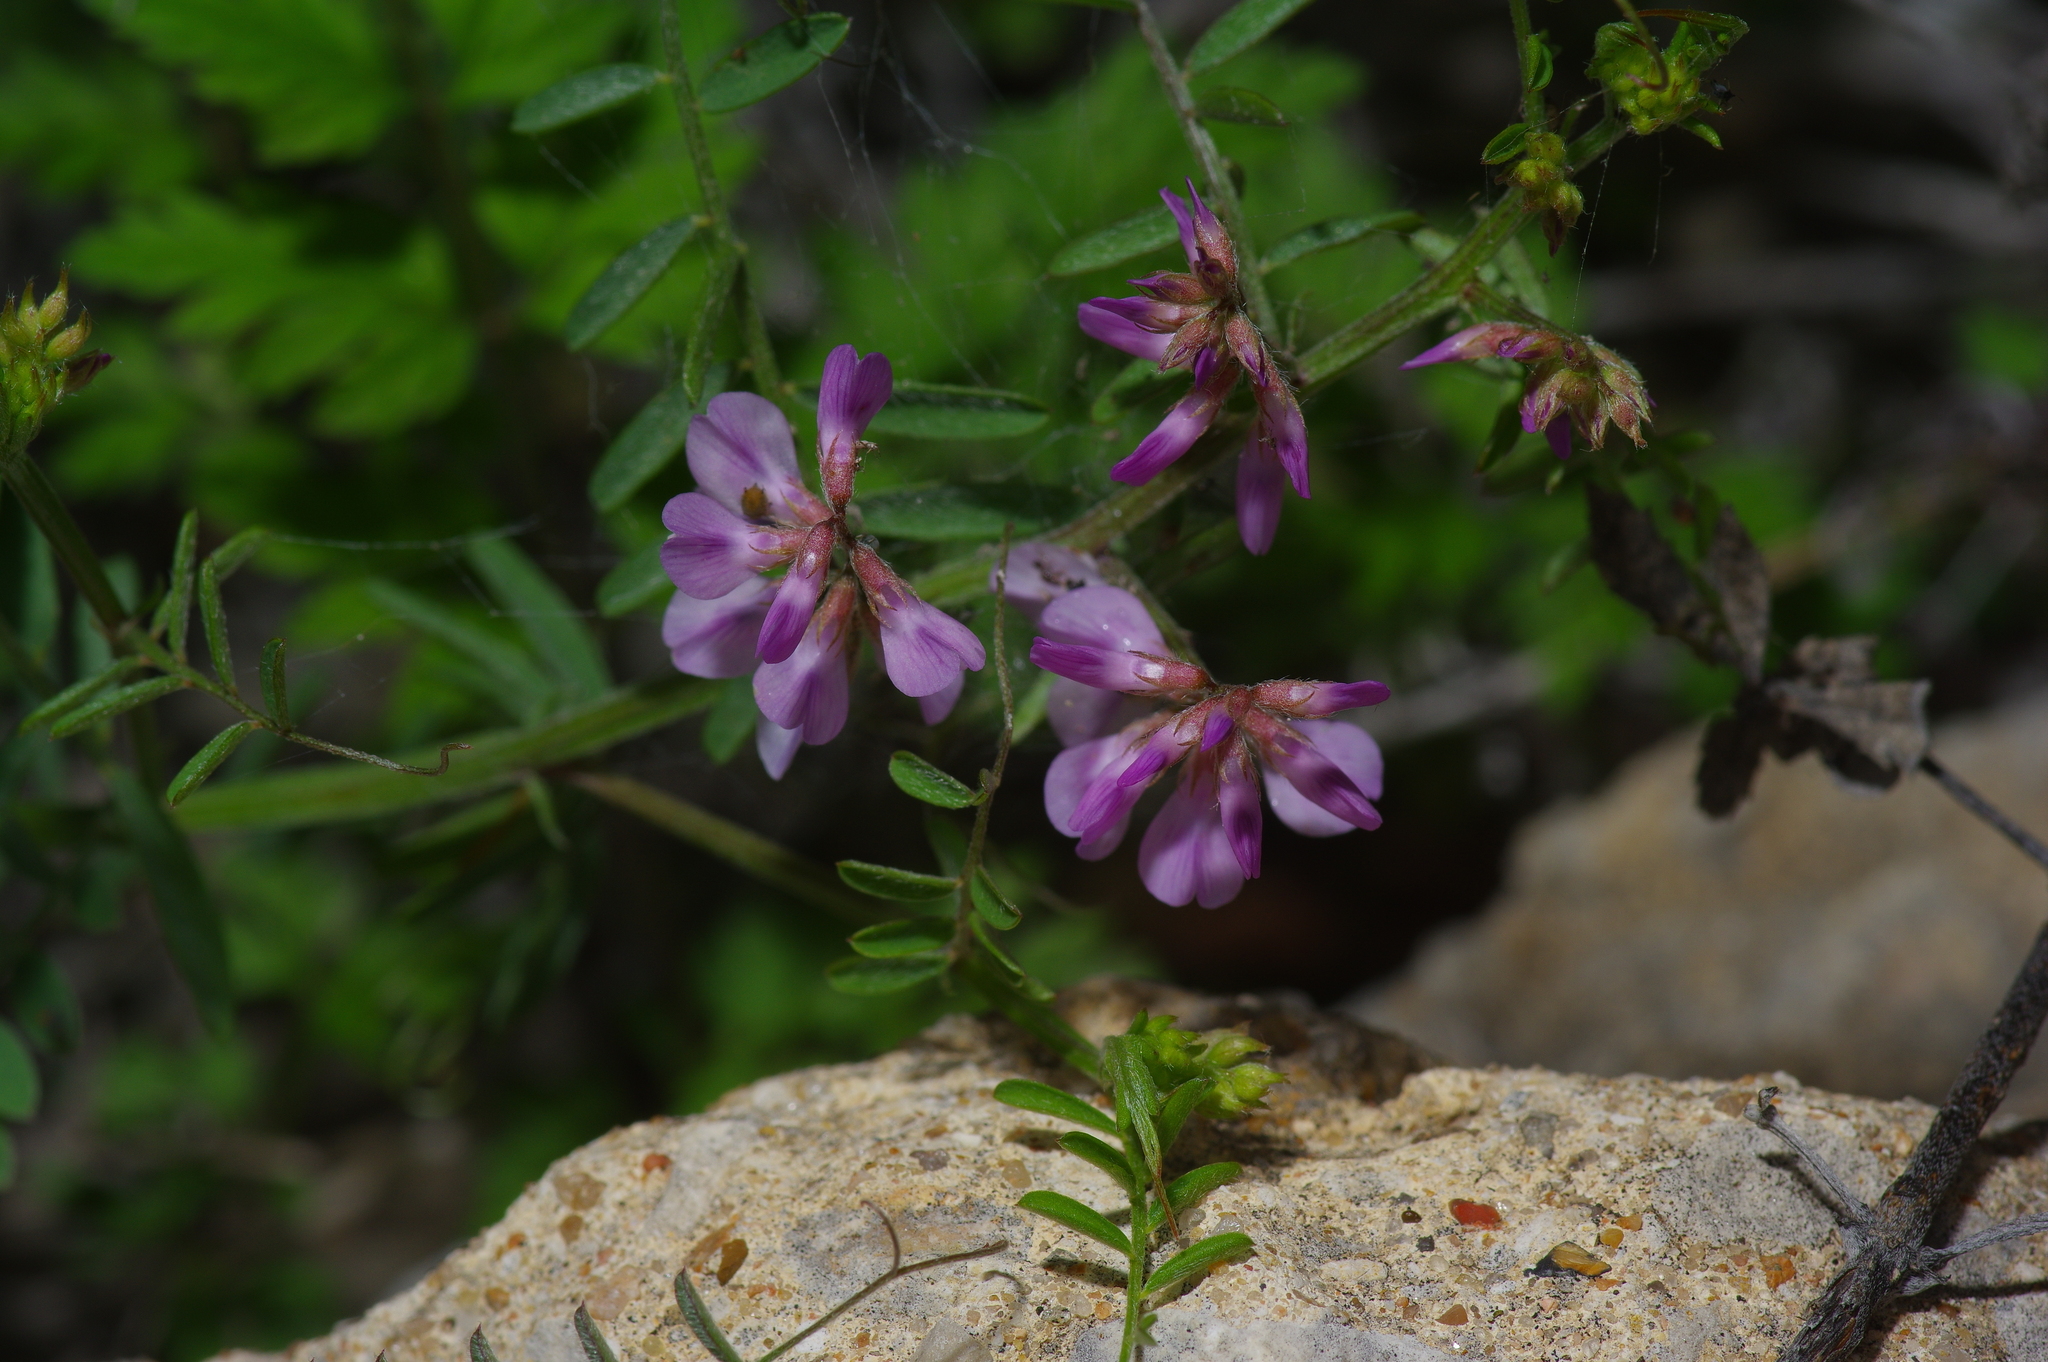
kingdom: Plantae
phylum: Tracheophyta
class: Magnoliopsida
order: Fabales
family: Fabaceae
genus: Vicia
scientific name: Vicia ludoviciana
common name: Louisiana vetch
